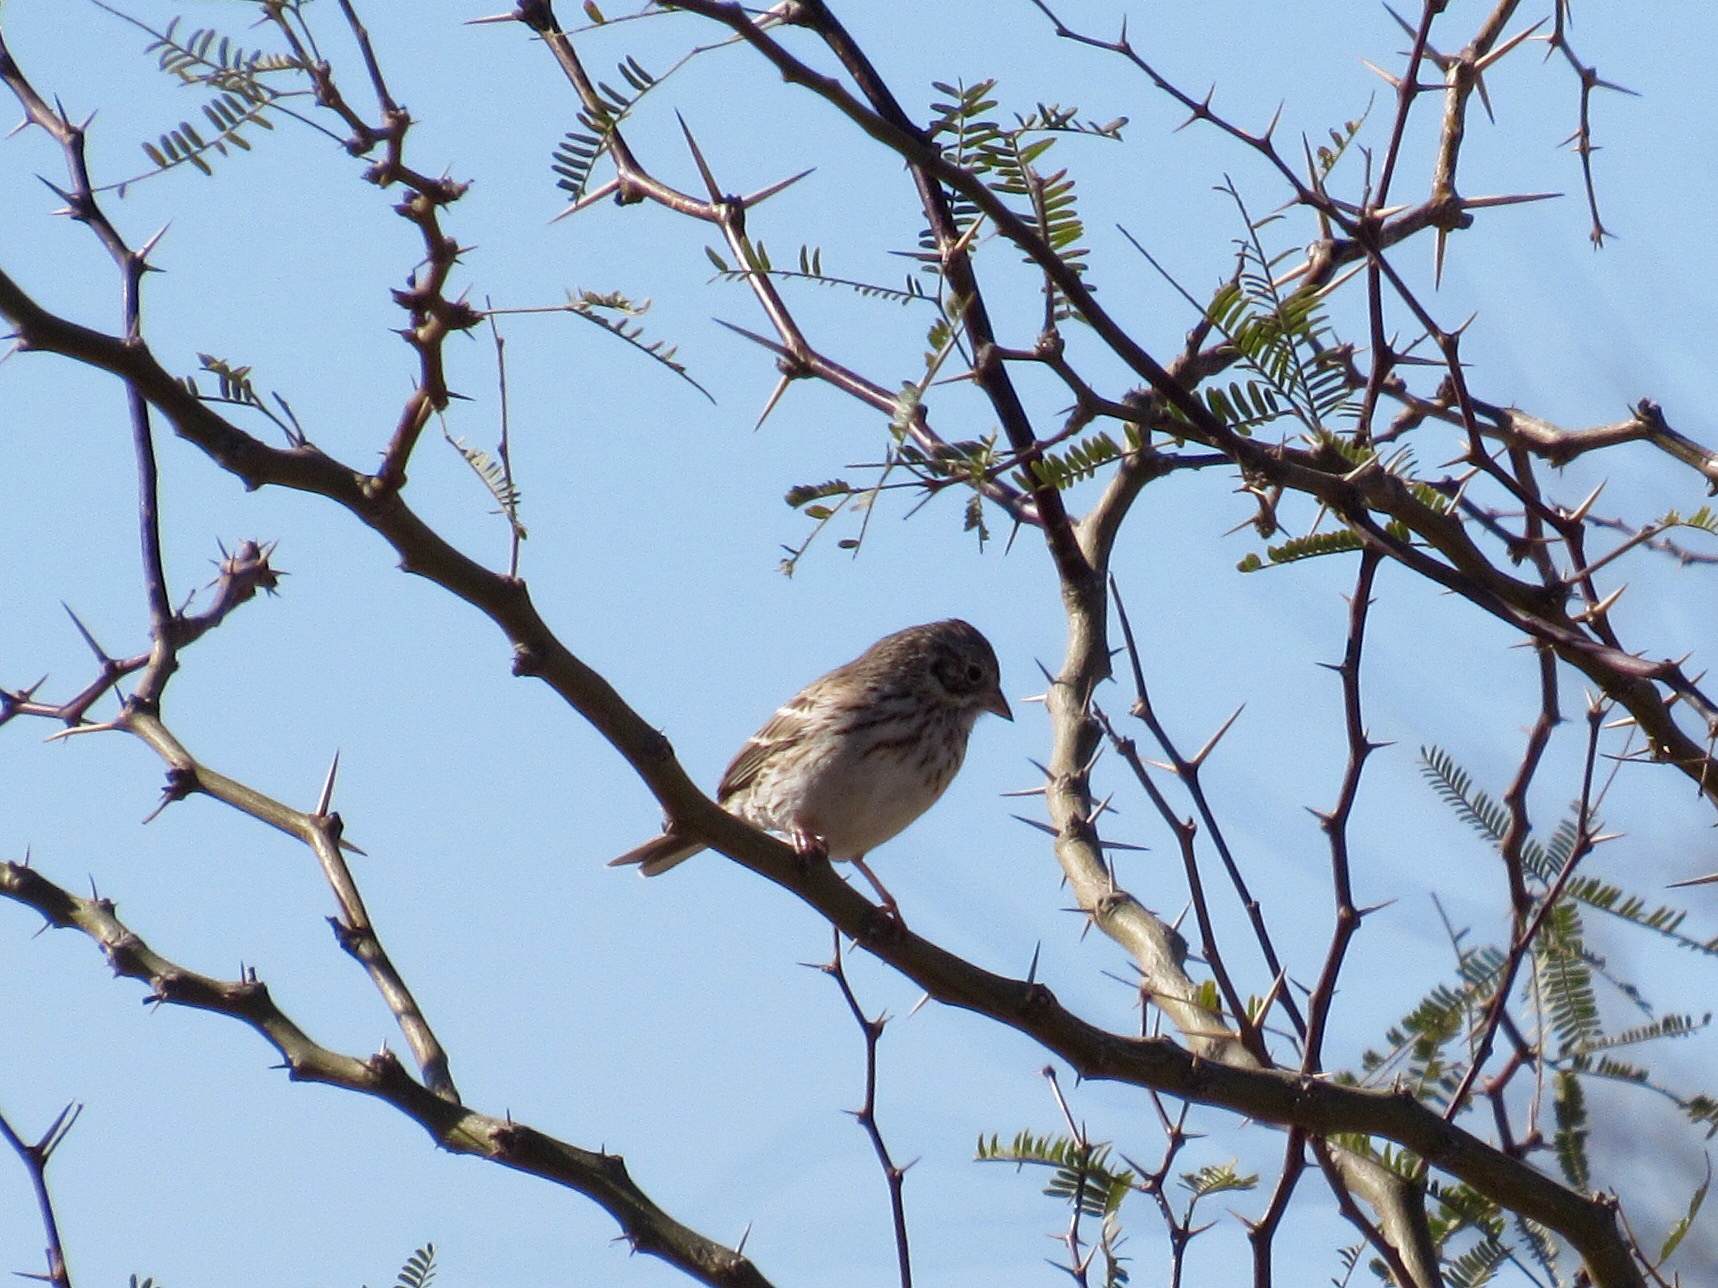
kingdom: Animalia
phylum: Chordata
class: Aves
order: Passeriformes
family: Passerellidae
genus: Pooecetes
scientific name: Pooecetes gramineus
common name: Vesper sparrow
